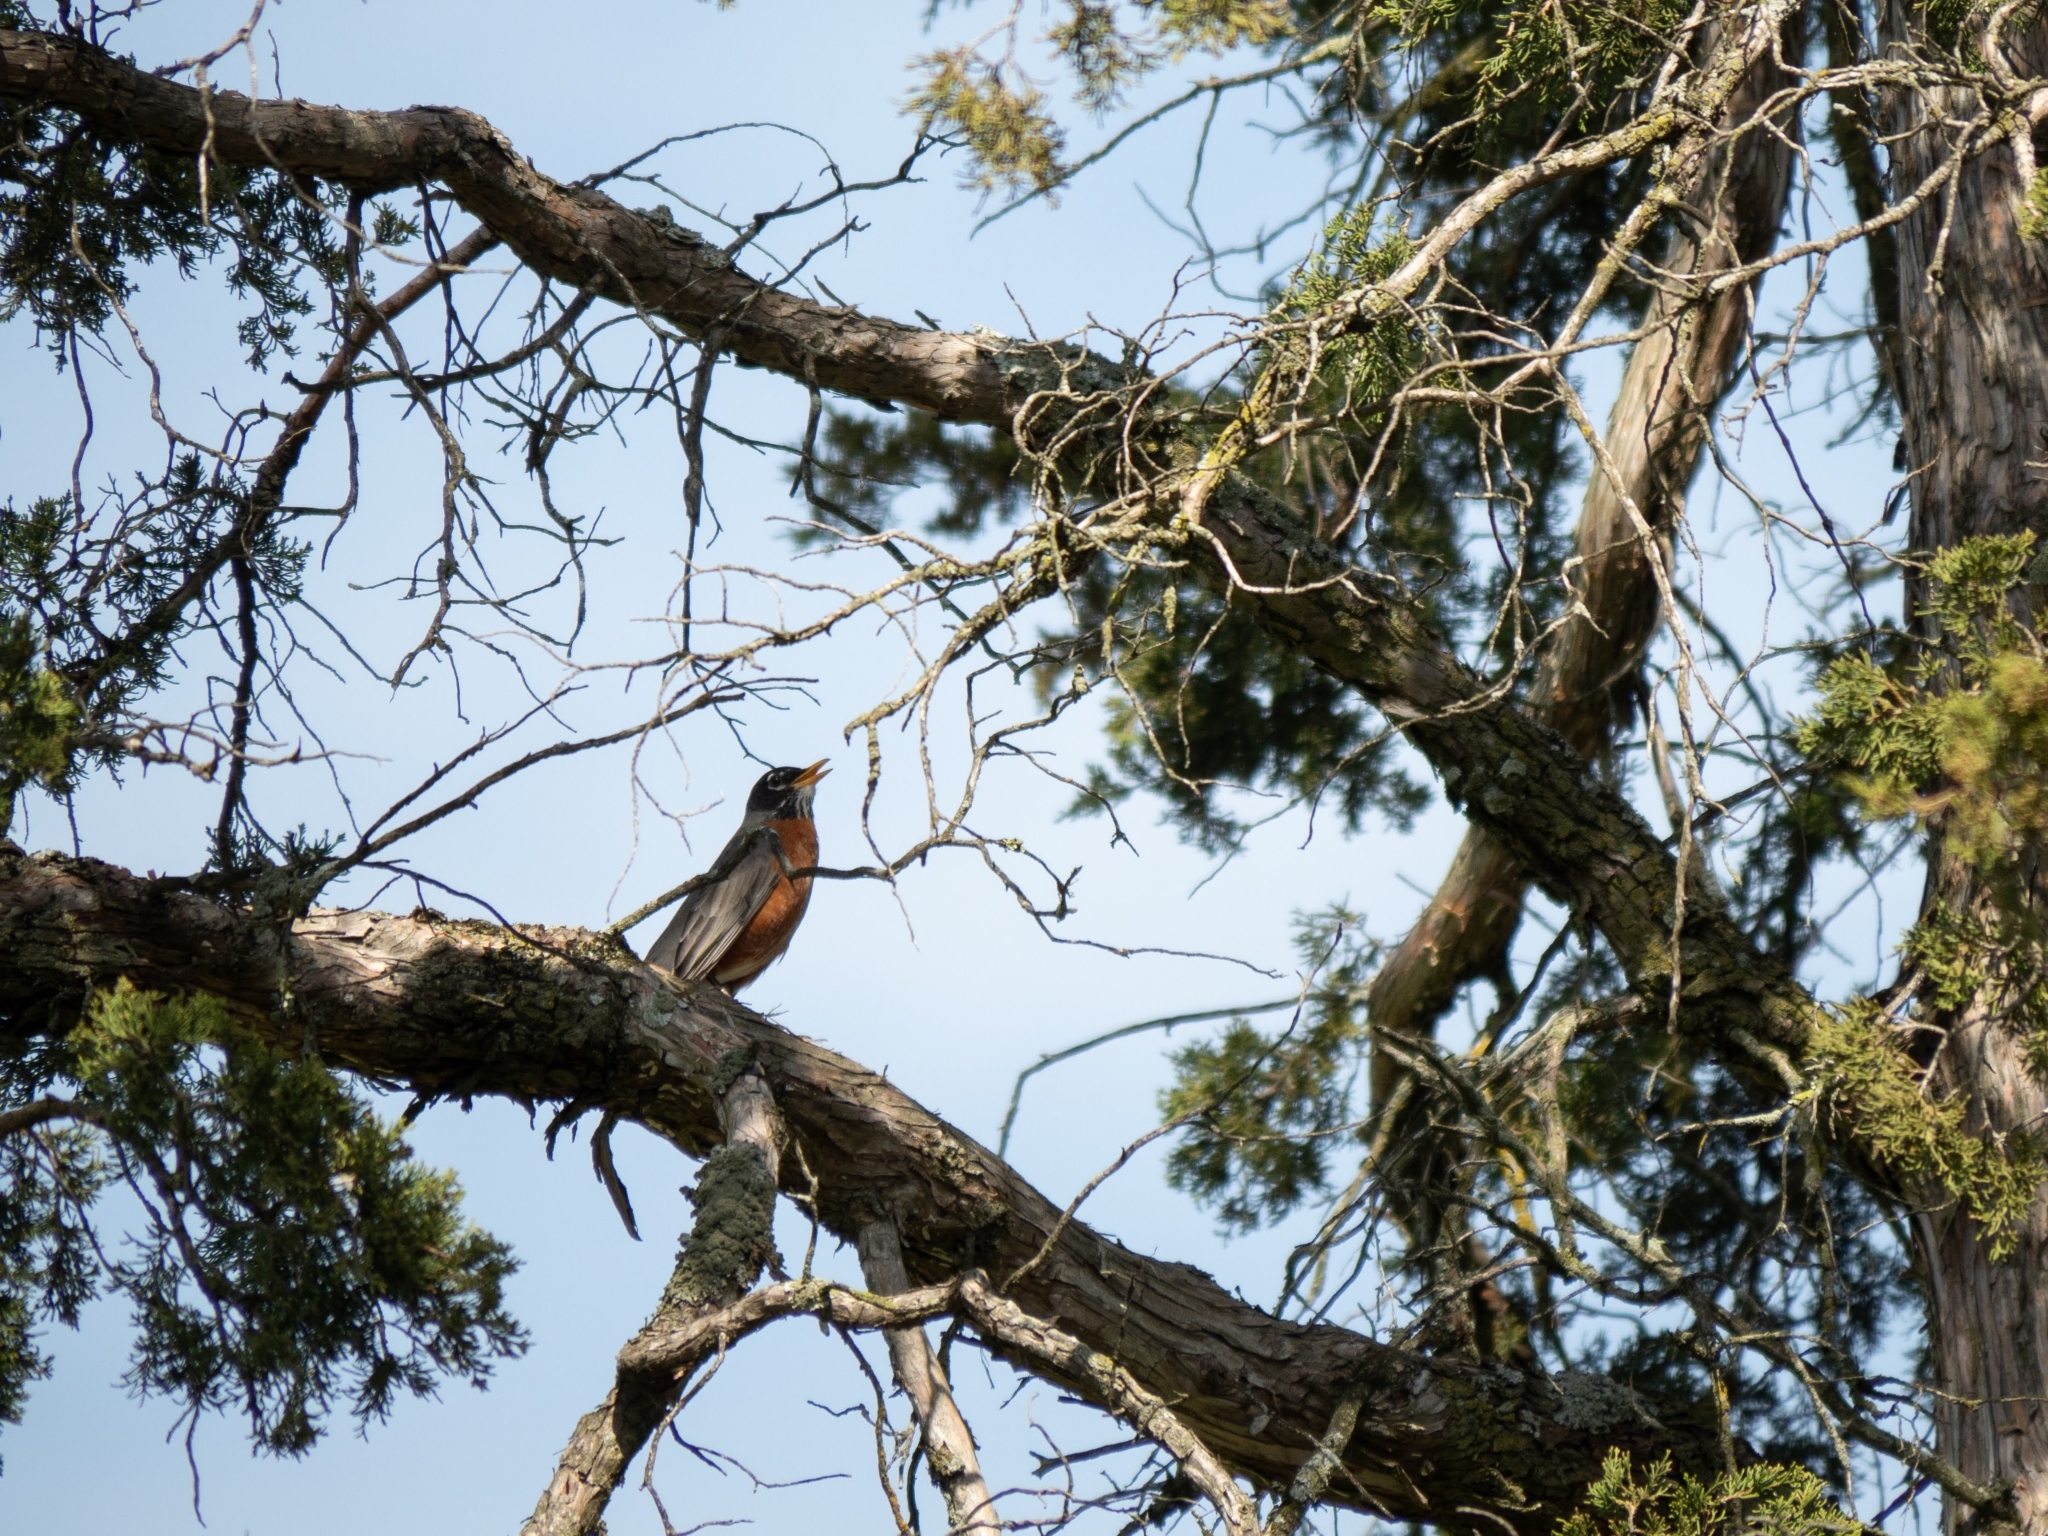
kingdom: Animalia
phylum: Chordata
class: Aves
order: Passeriformes
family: Turdidae
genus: Turdus
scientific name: Turdus migratorius
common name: American robin
